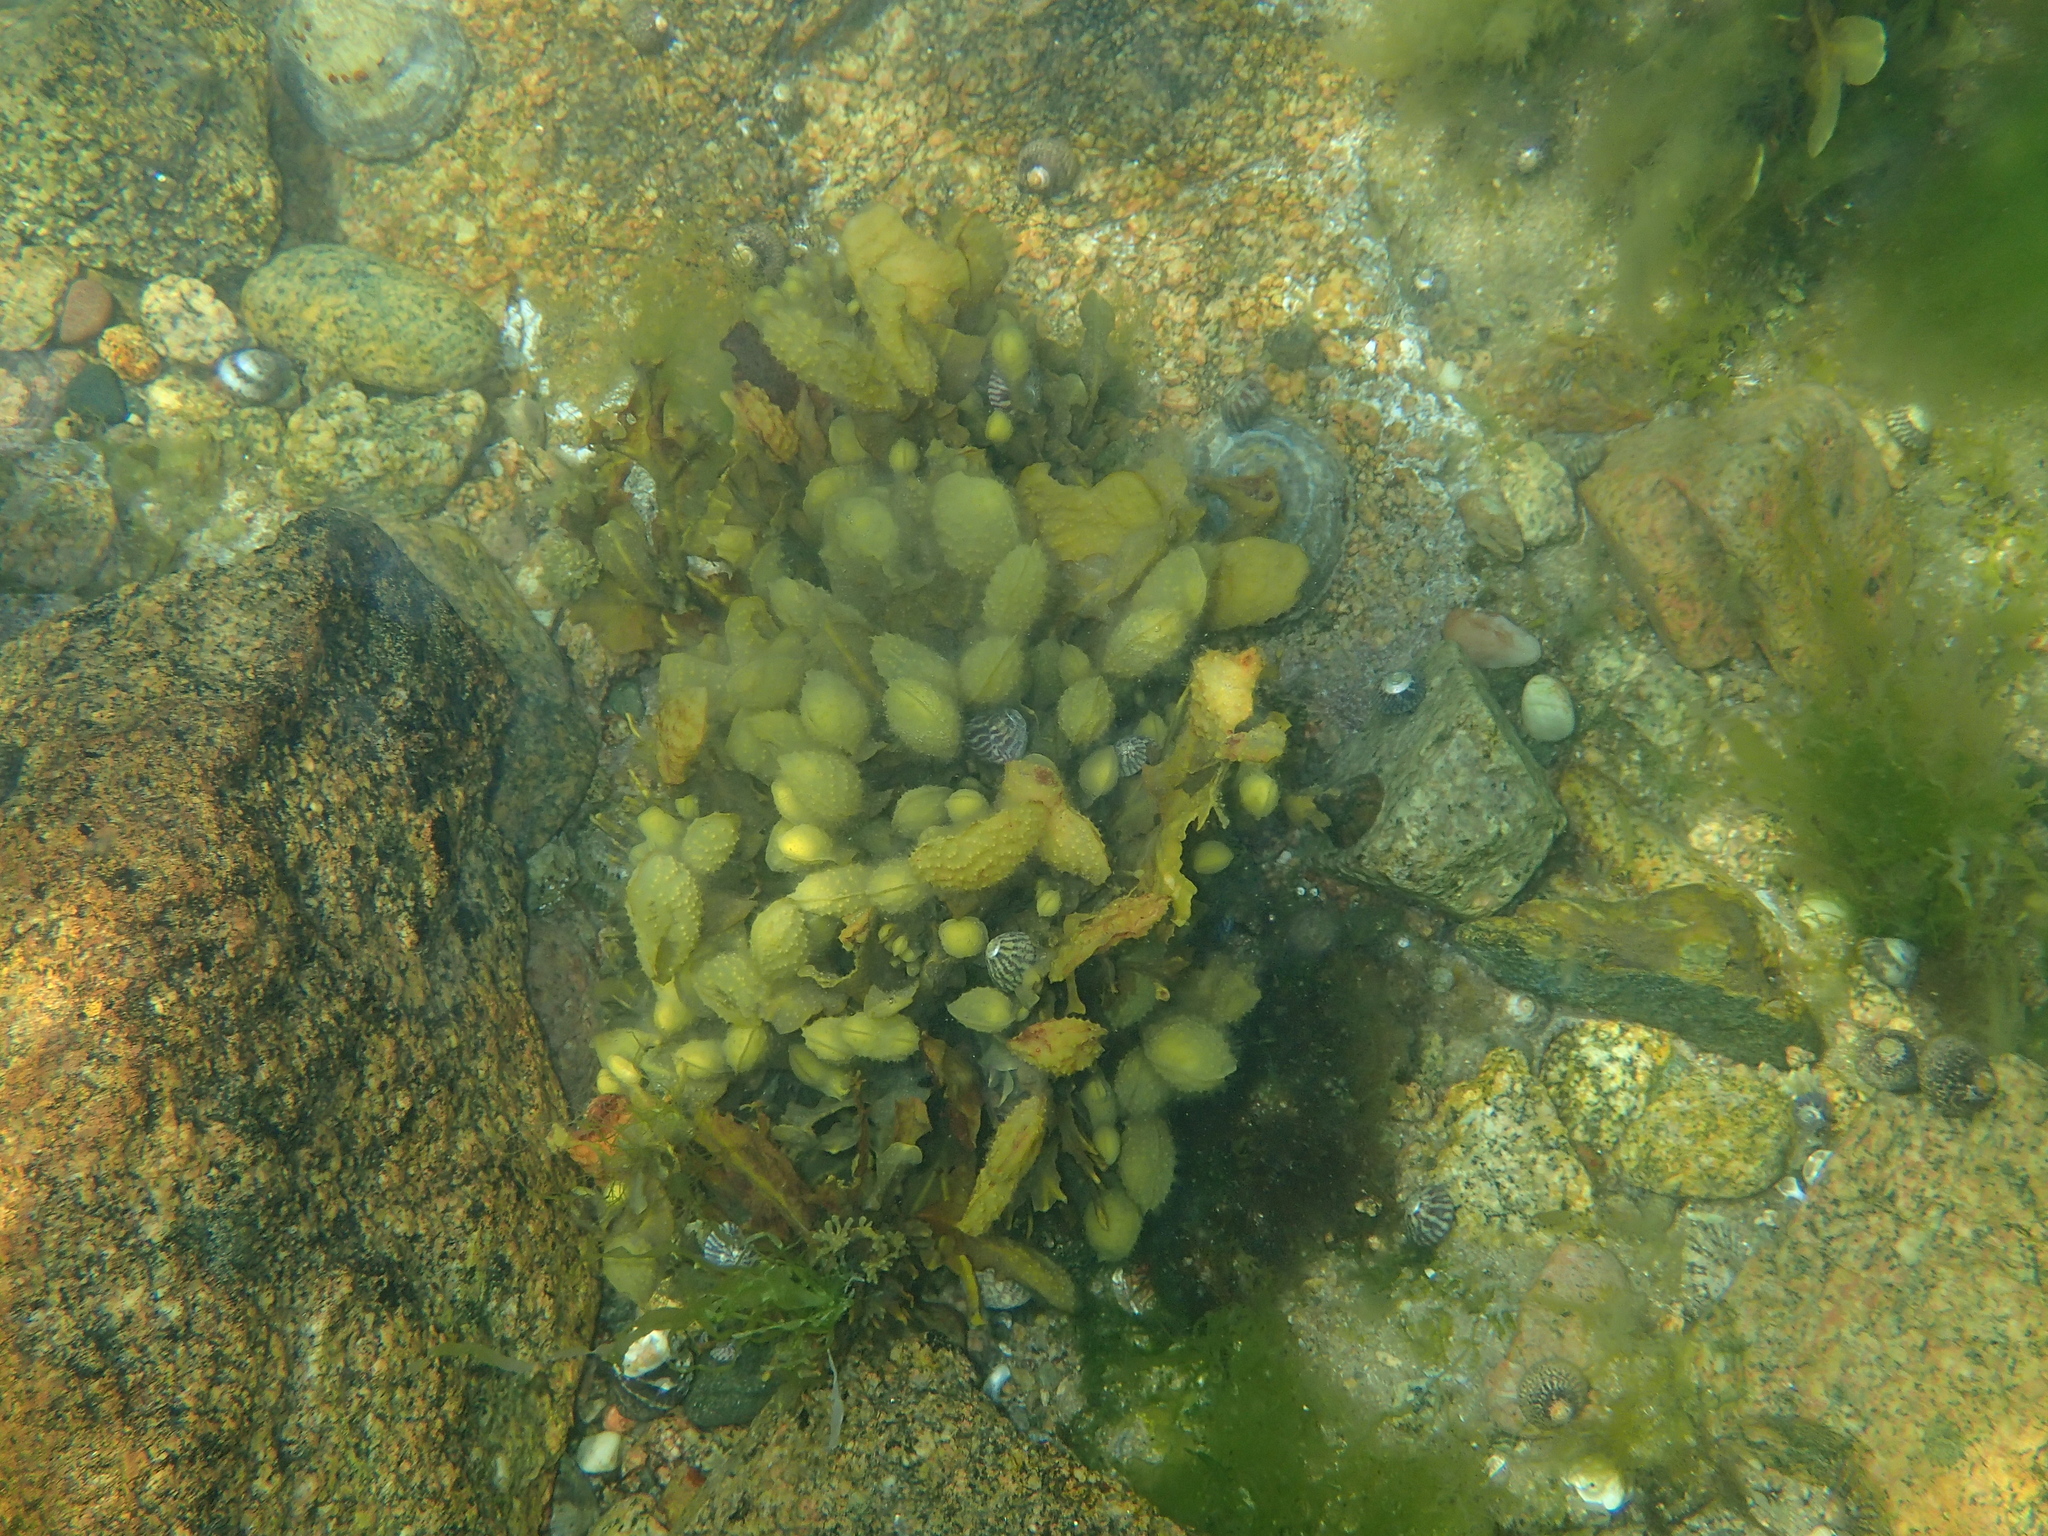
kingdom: Chromista
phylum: Ochrophyta
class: Phaeophyceae
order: Fucales
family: Fucaceae
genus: Fucus
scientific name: Fucus spiralis
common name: Spiral wrack
